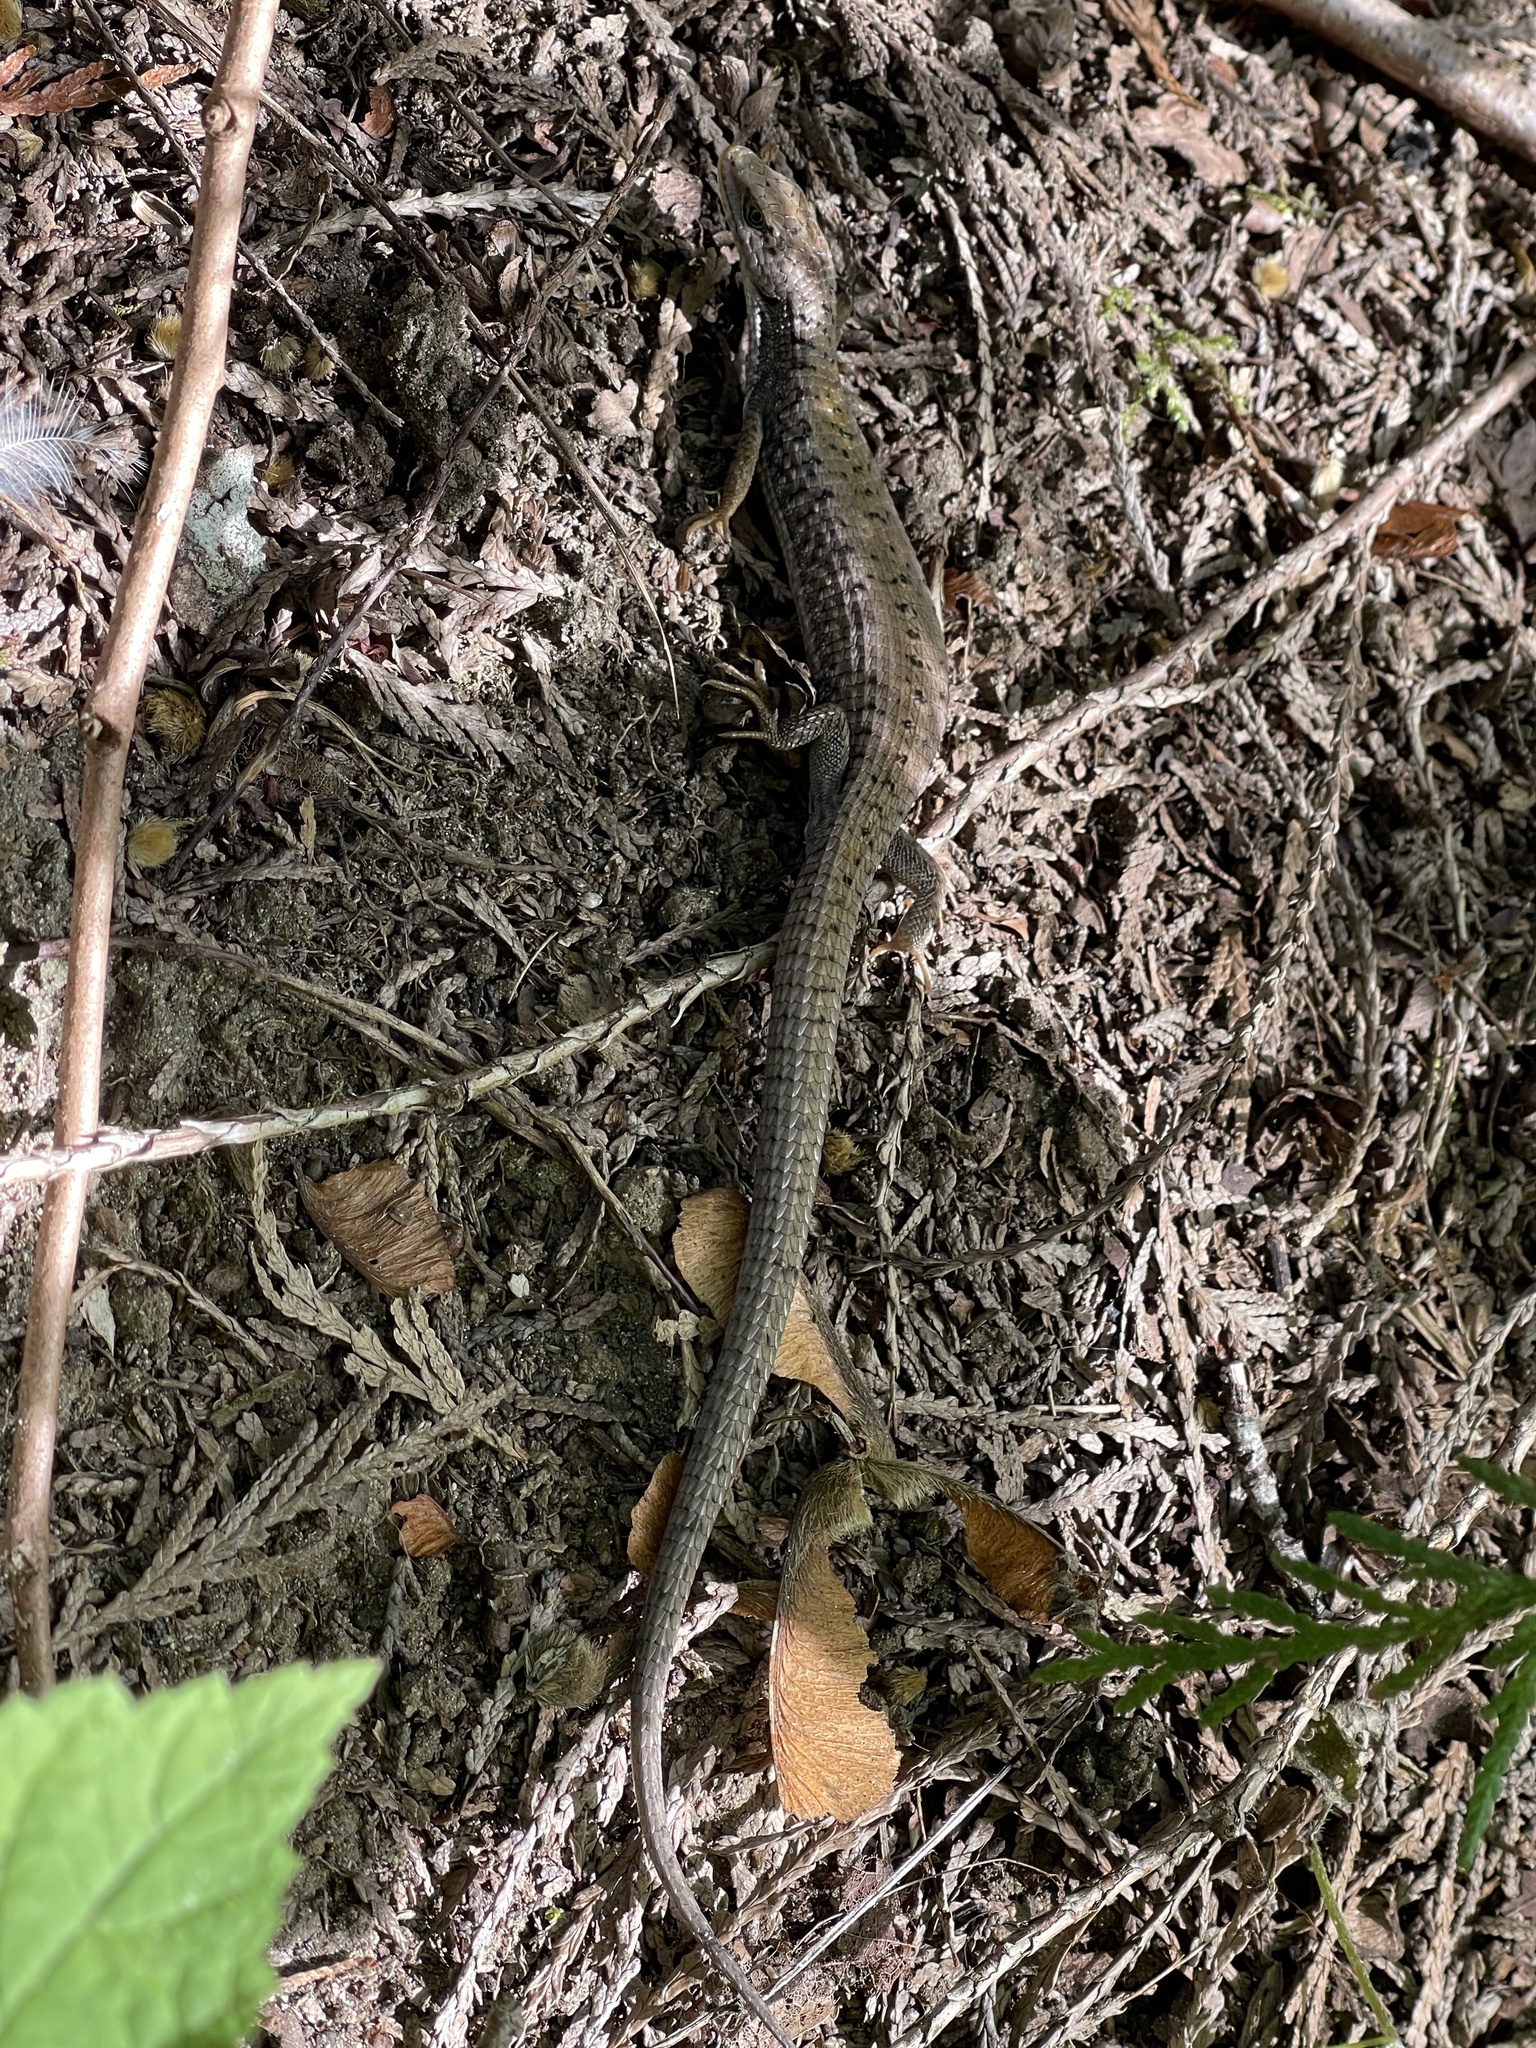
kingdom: Animalia
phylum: Chordata
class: Squamata
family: Anguidae
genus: Elgaria
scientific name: Elgaria coerulea
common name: Northern alligator lizard
